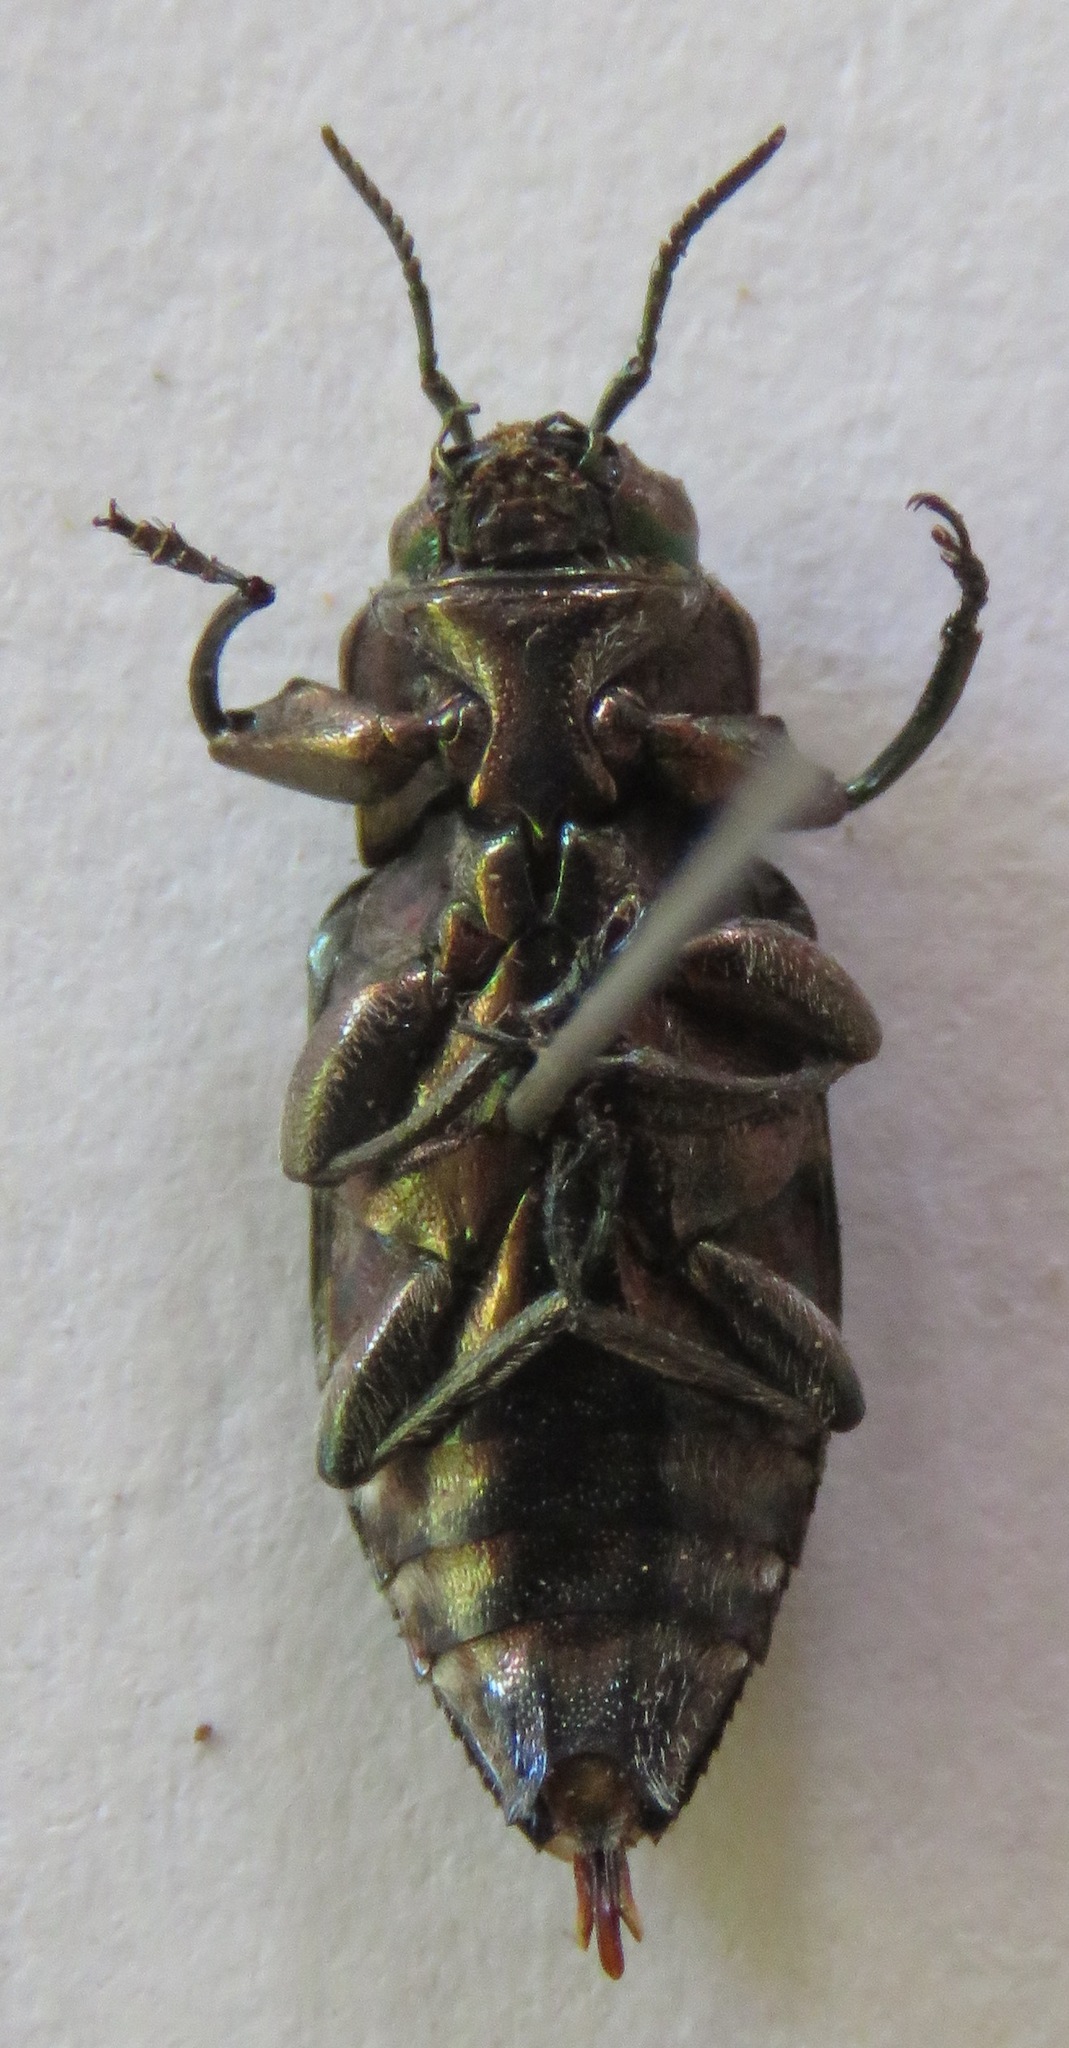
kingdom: Animalia
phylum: Arthropoda
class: Insecta
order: Coleoptera
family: Buprestidae
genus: Chrysobothris
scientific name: Chrysobothris acutipennis
